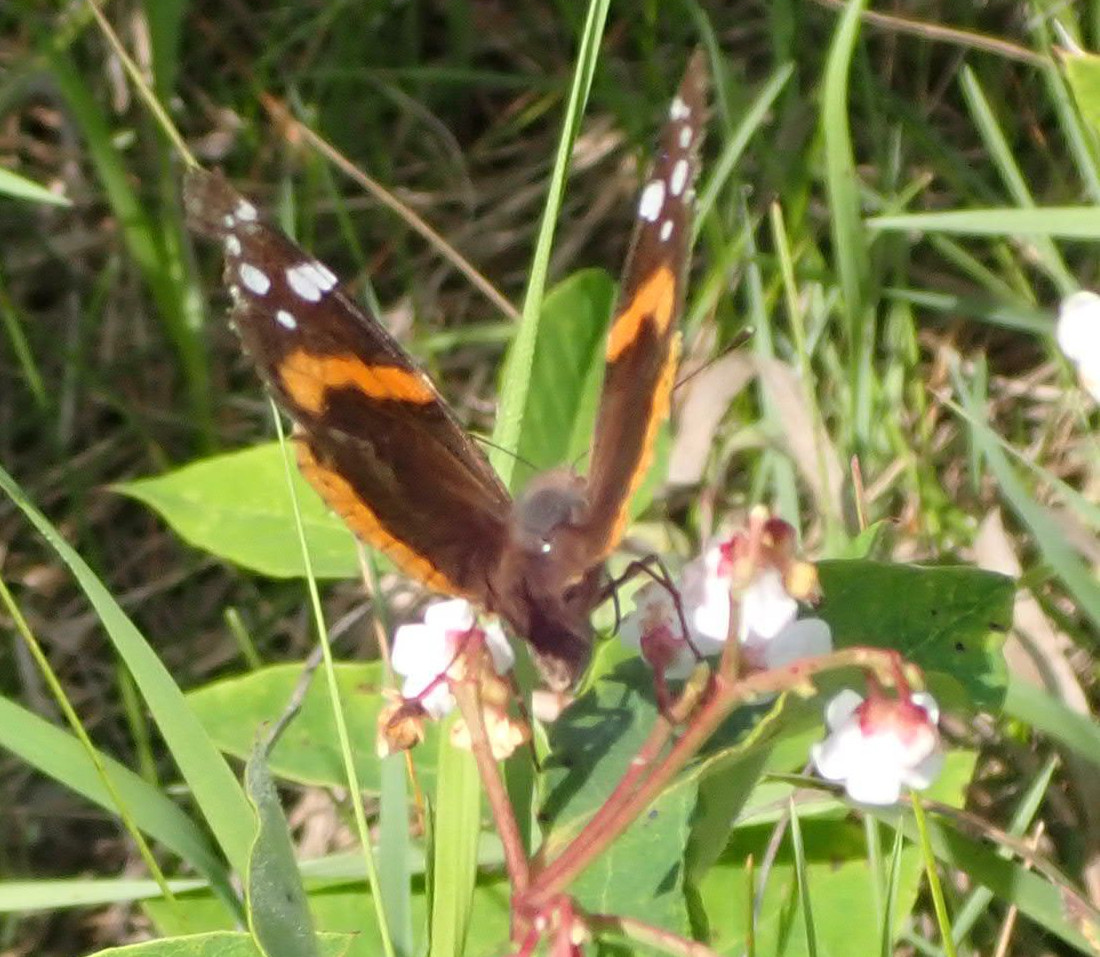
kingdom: Animalia
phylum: Arthropoda
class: Insecta
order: Lepidoptera
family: Nymphalidae
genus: Vanessa
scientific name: Vanessa atalanta
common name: Red admiral
